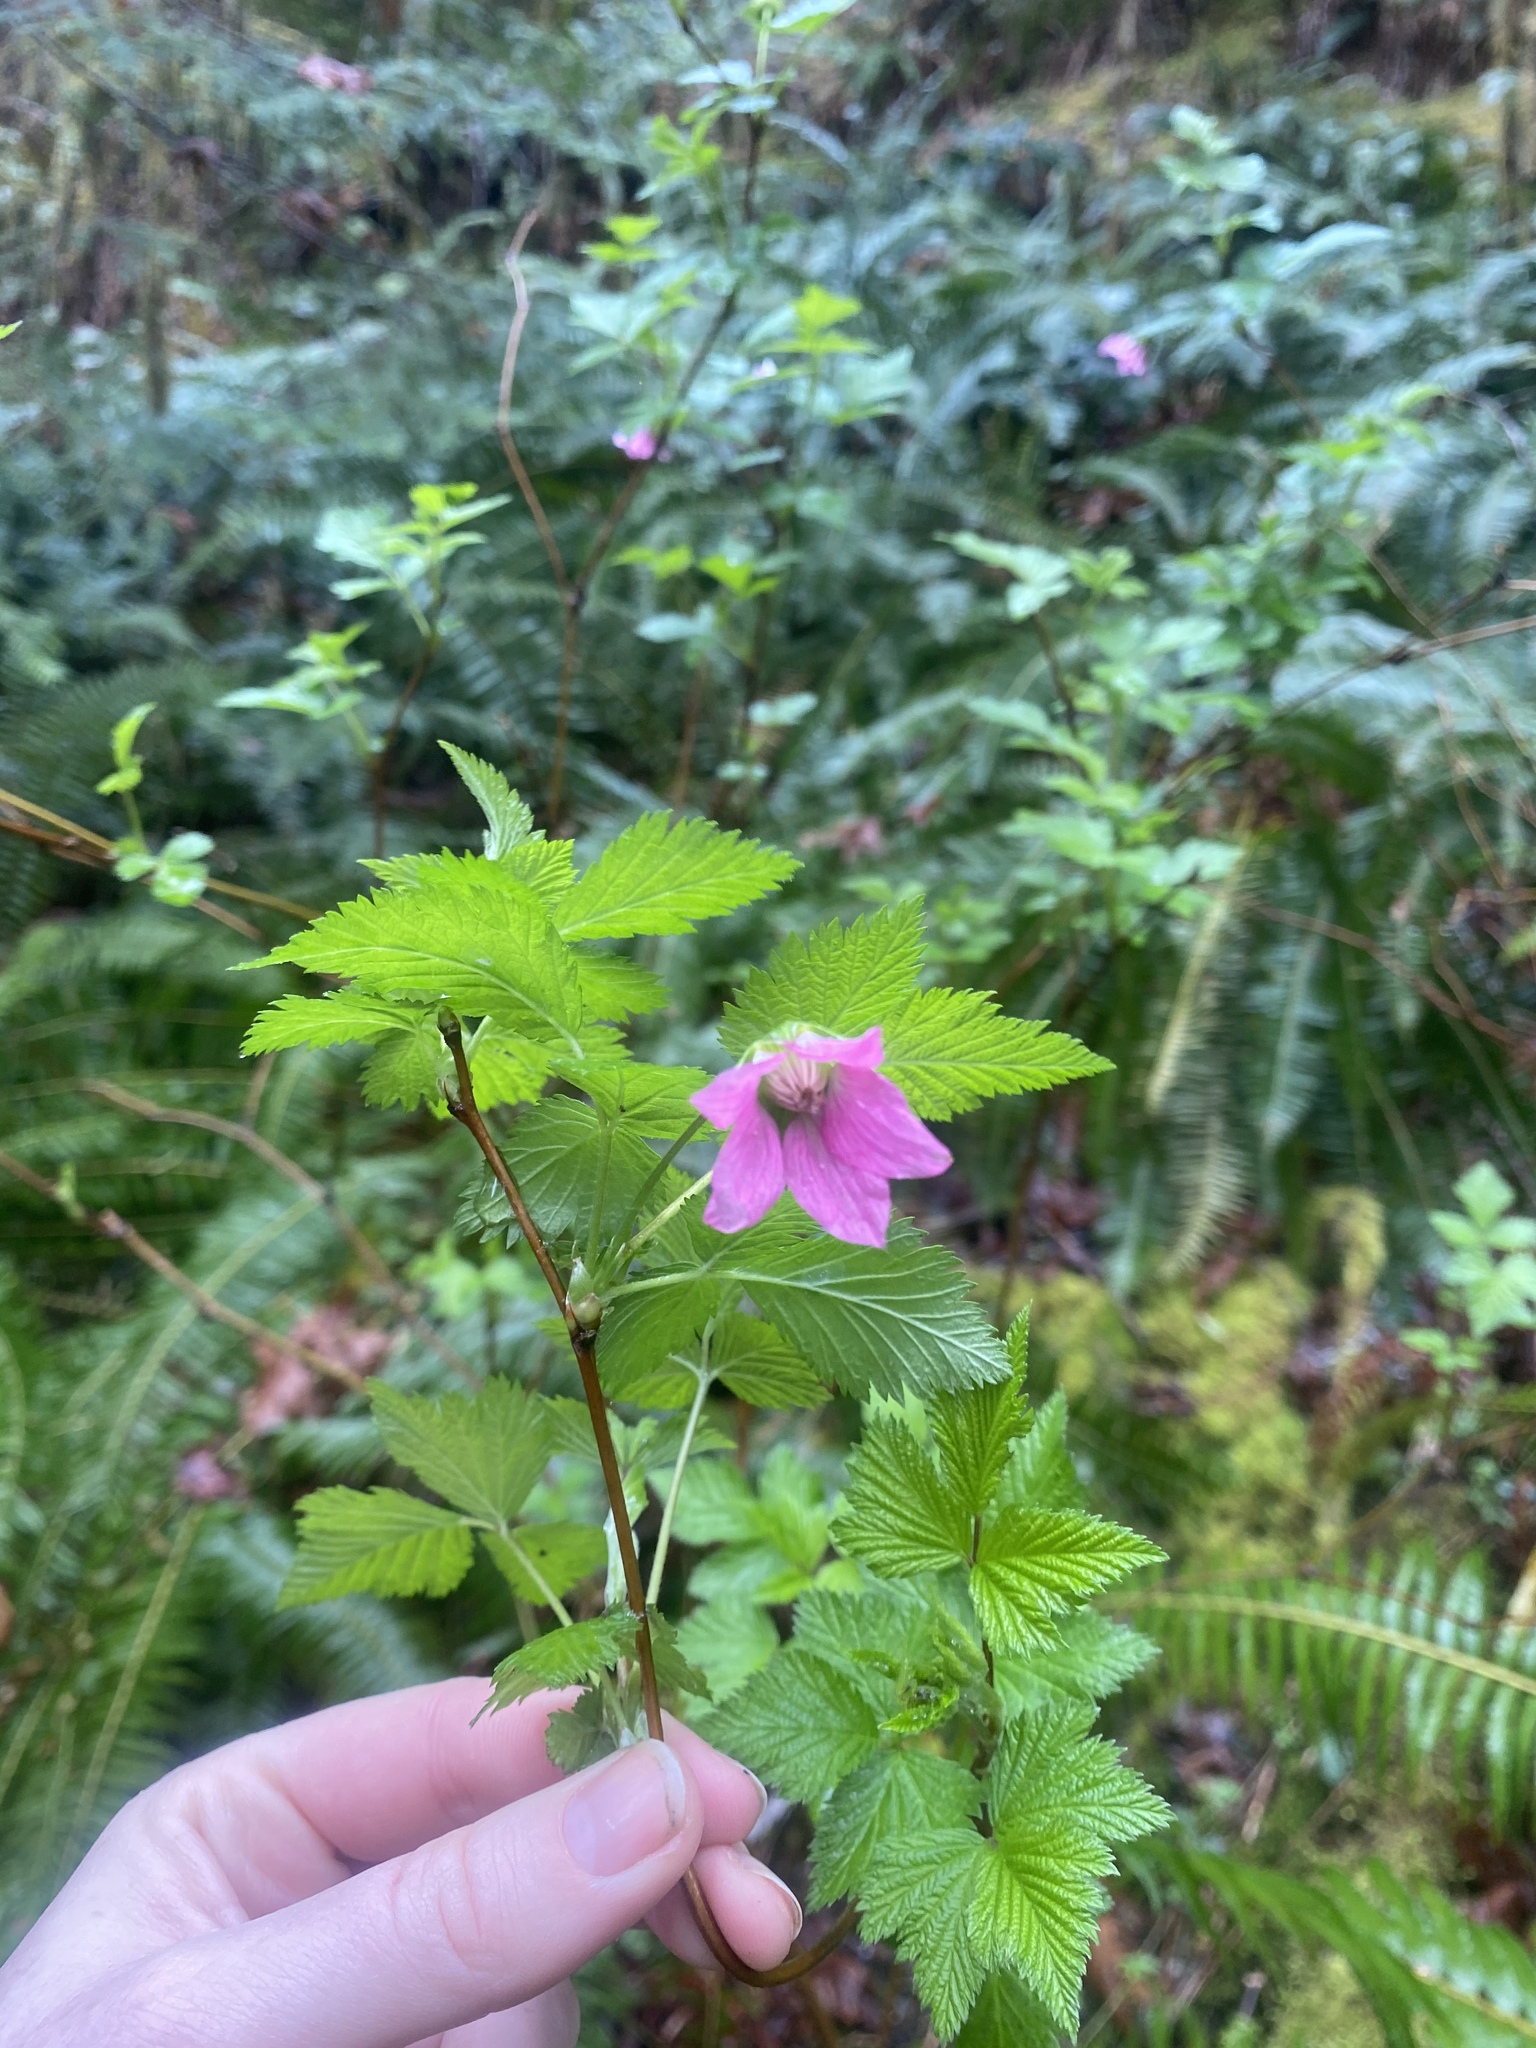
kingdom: Plantae
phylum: Tracheophyta
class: Magnoliopsida
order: Rosales
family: Rosaceae
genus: Rubus
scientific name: Rubus spectabilis
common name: Salmonberry
